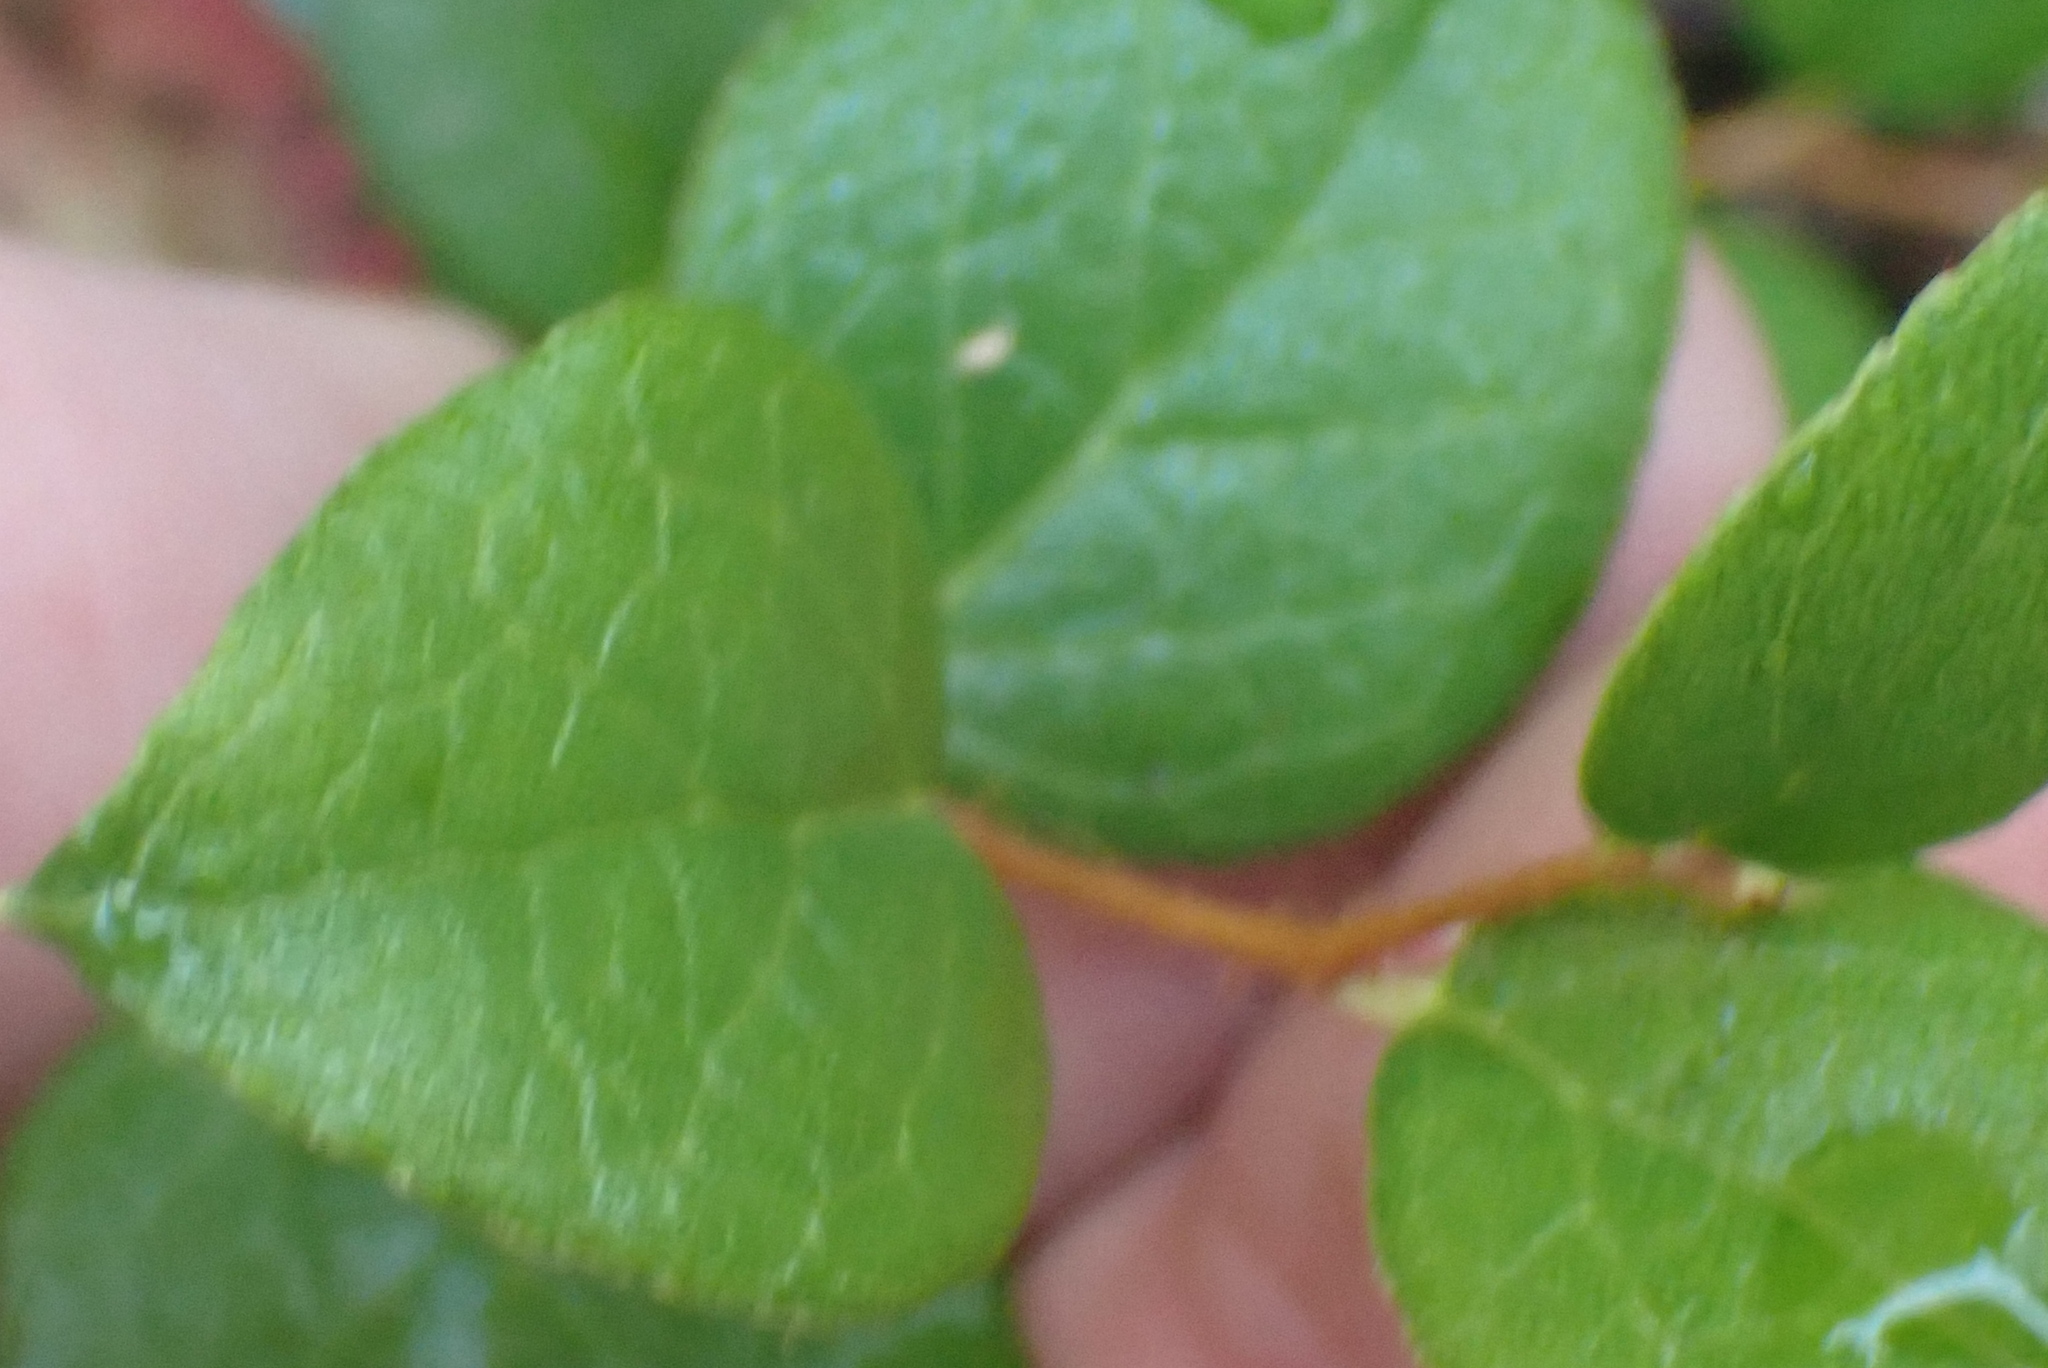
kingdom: Plantae
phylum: Tracheophyta
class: Magnoliopsida
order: Ericales
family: Ericaceae
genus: Gaultheria
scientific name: Gaultheria ovatifolia
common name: Oregon wintergreen
